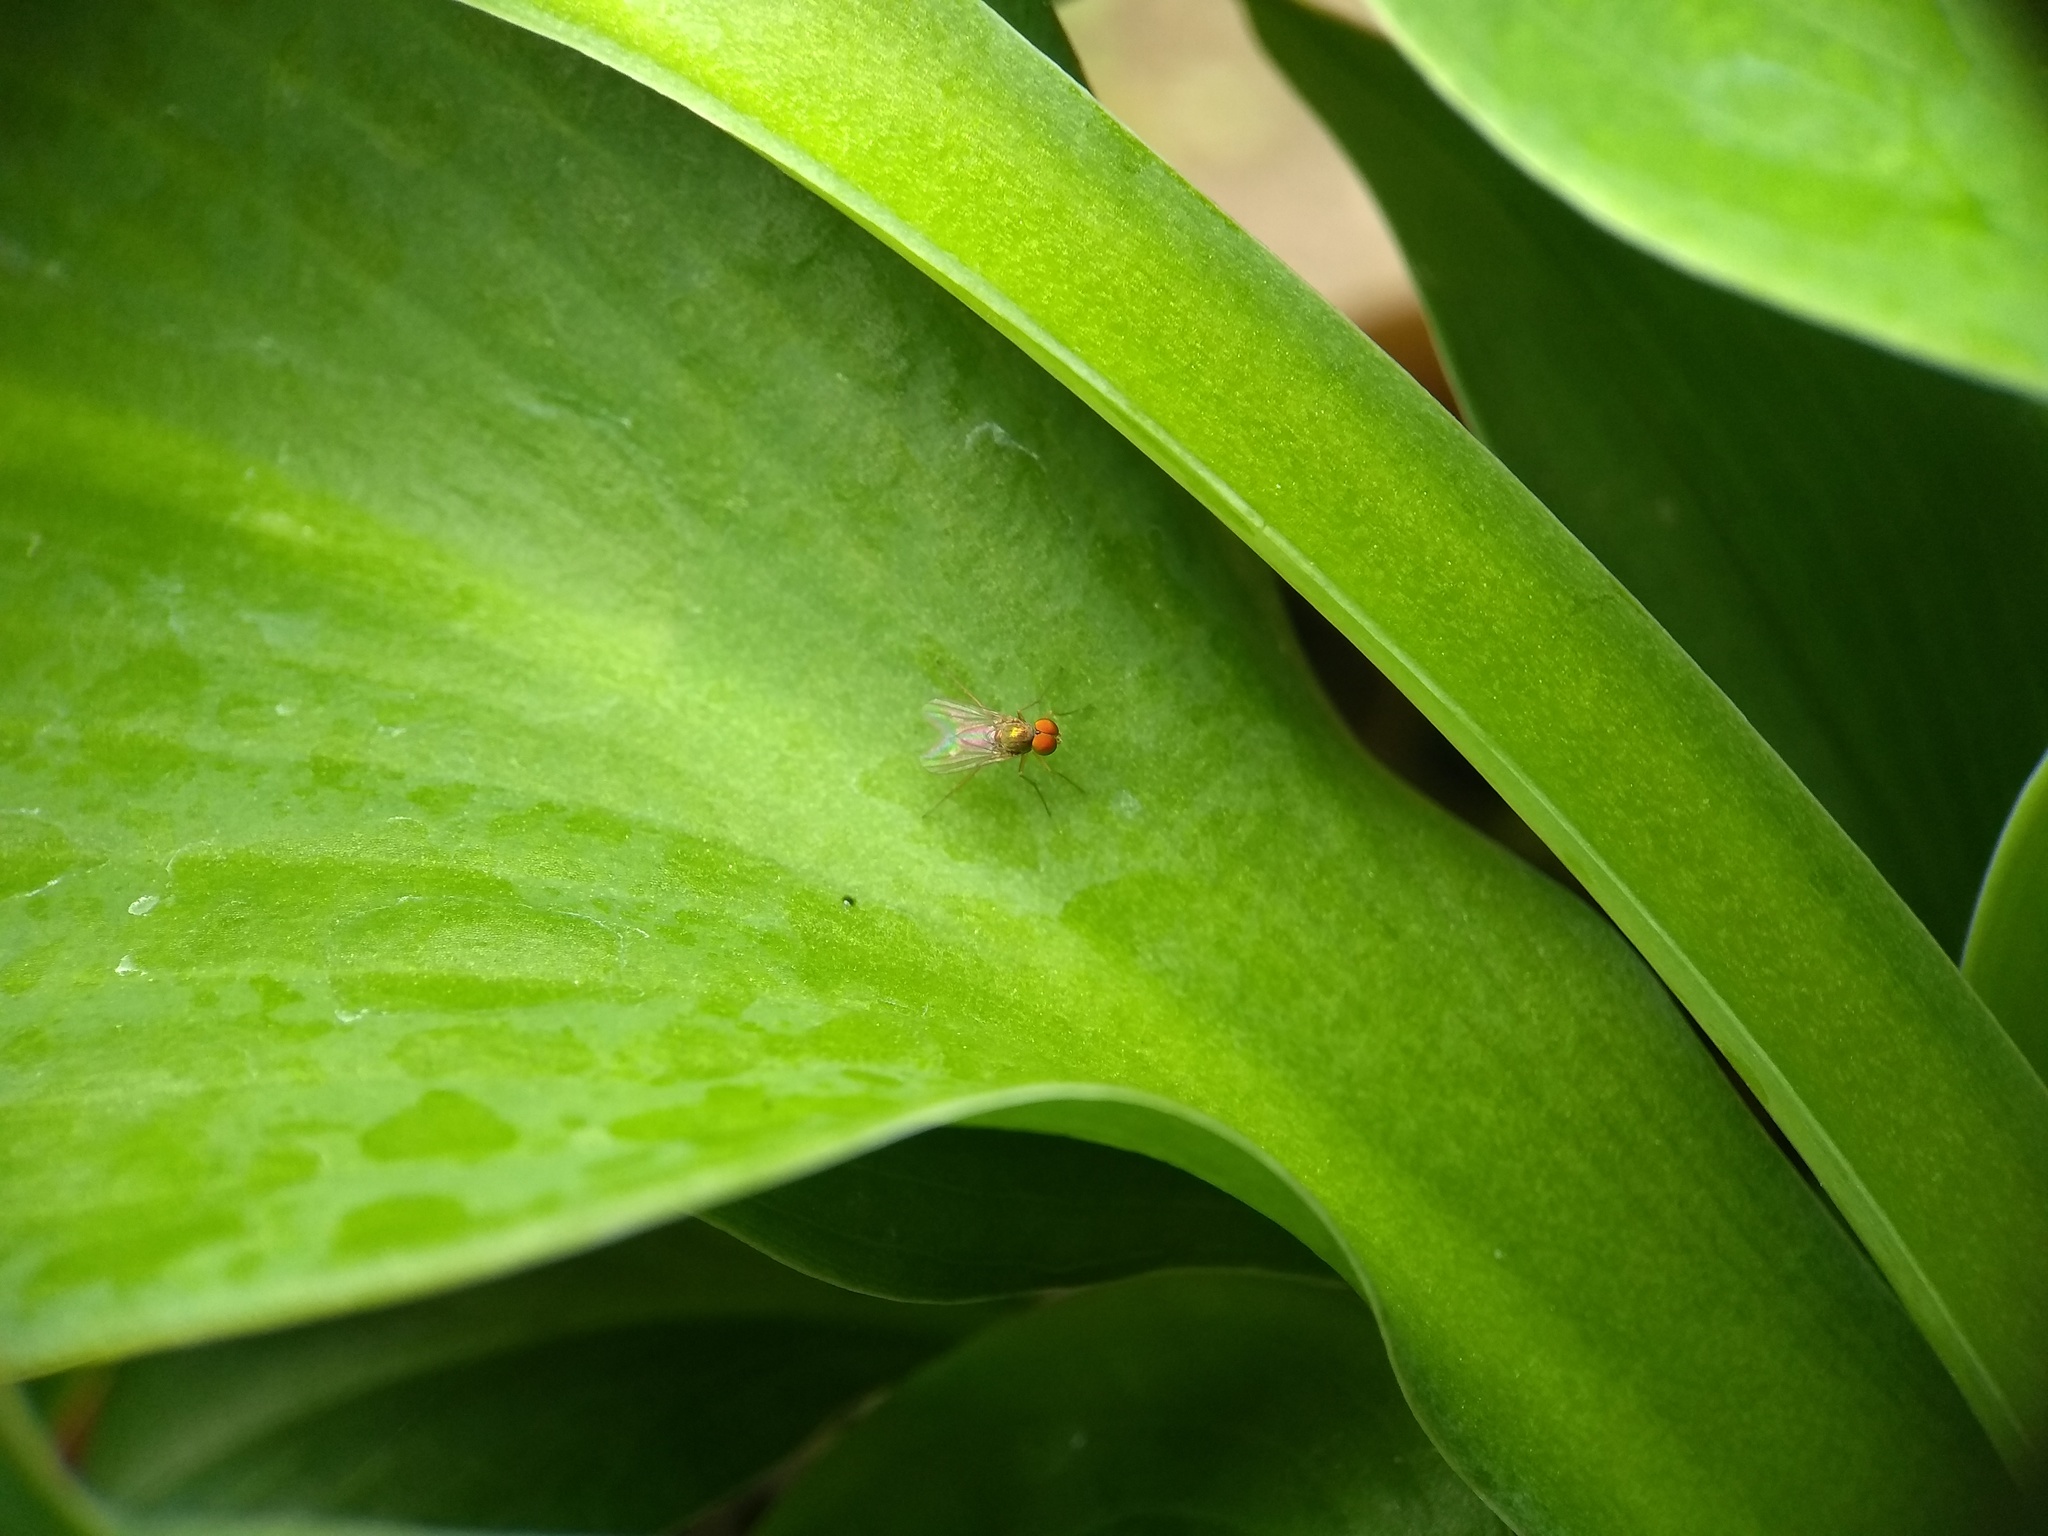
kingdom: Animalia
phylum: Arthropoda
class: Insecta
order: Diptera
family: Dolichopodidae
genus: Chrysotus
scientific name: Chrysotus
